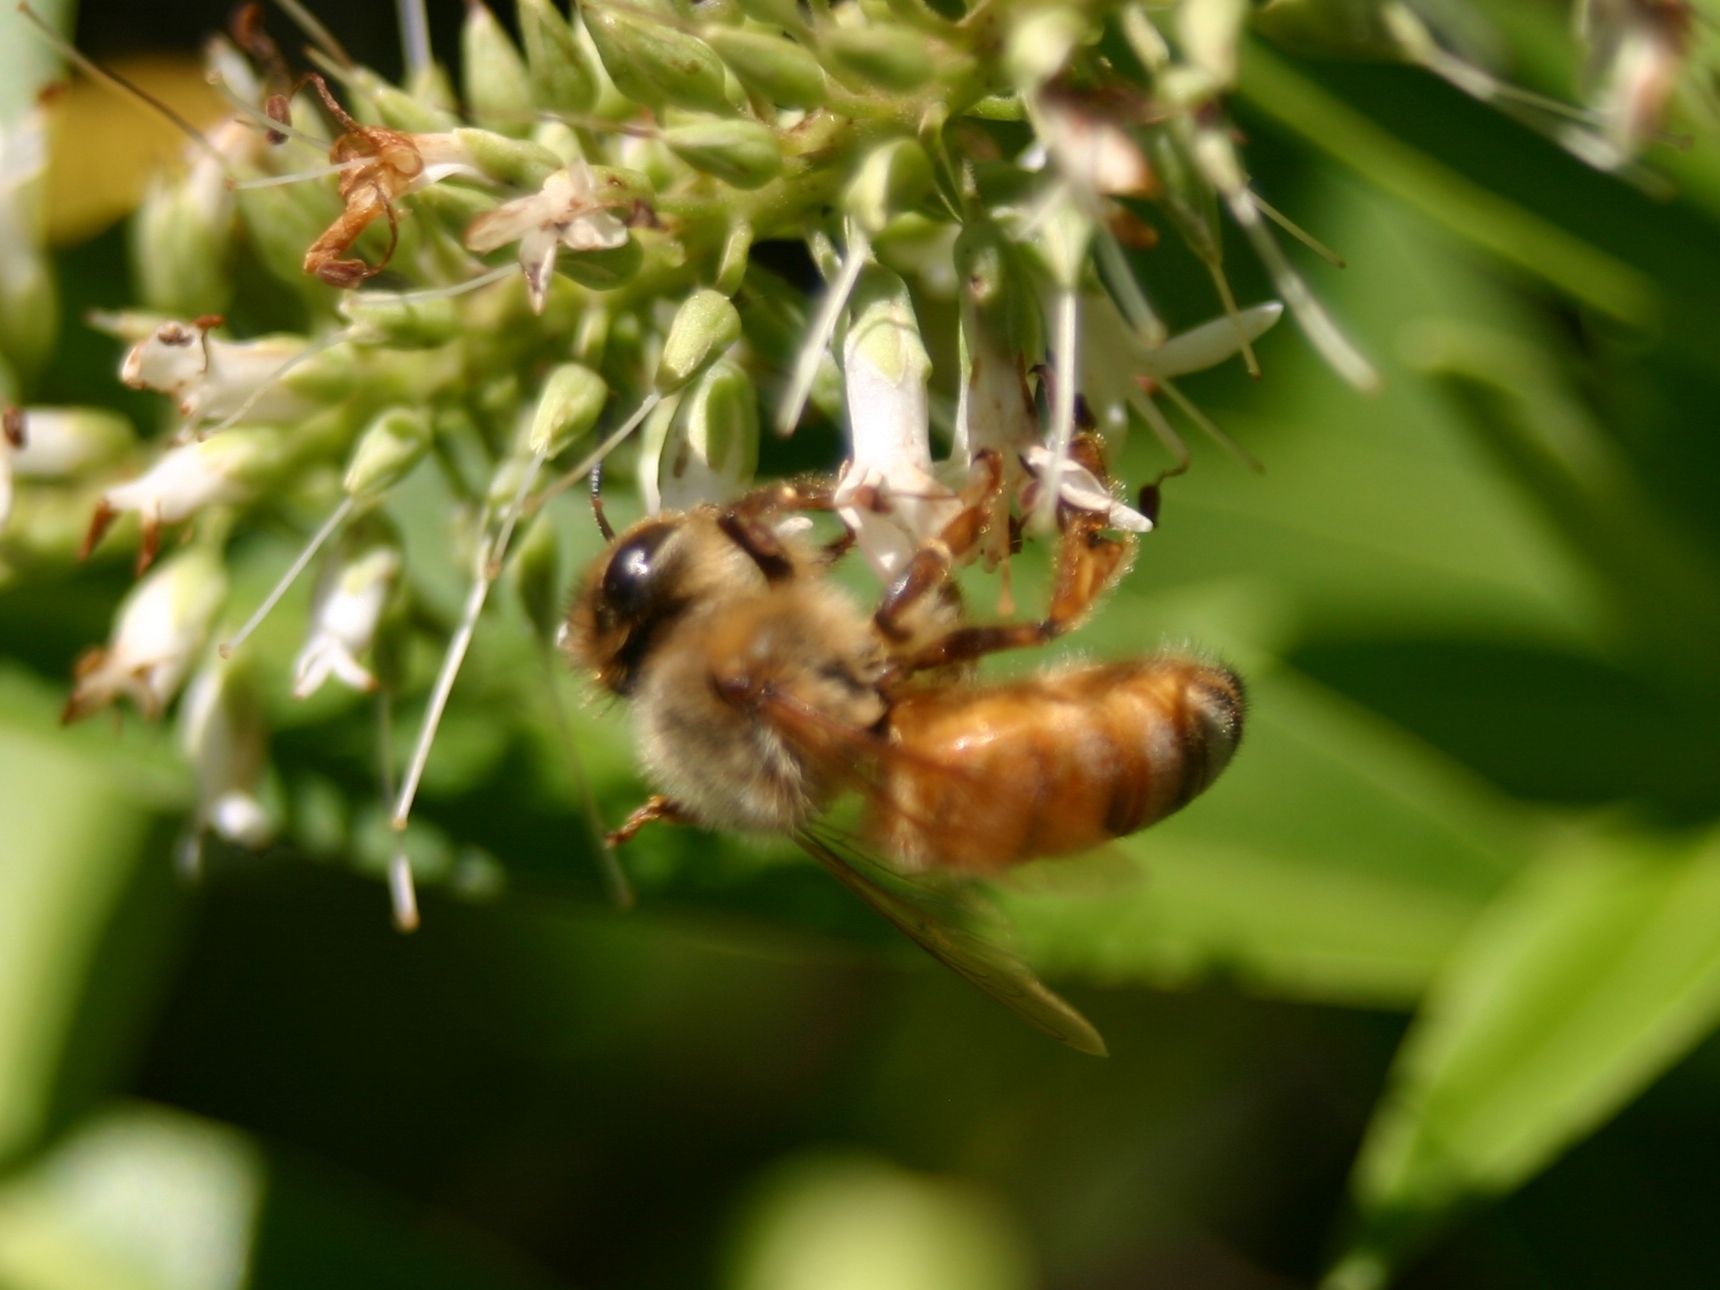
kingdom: Animalia
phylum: Arthropoda
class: Insecta
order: Hymenoptera
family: Apidae
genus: Apis
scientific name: Apis mellifera
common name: Honey bee
